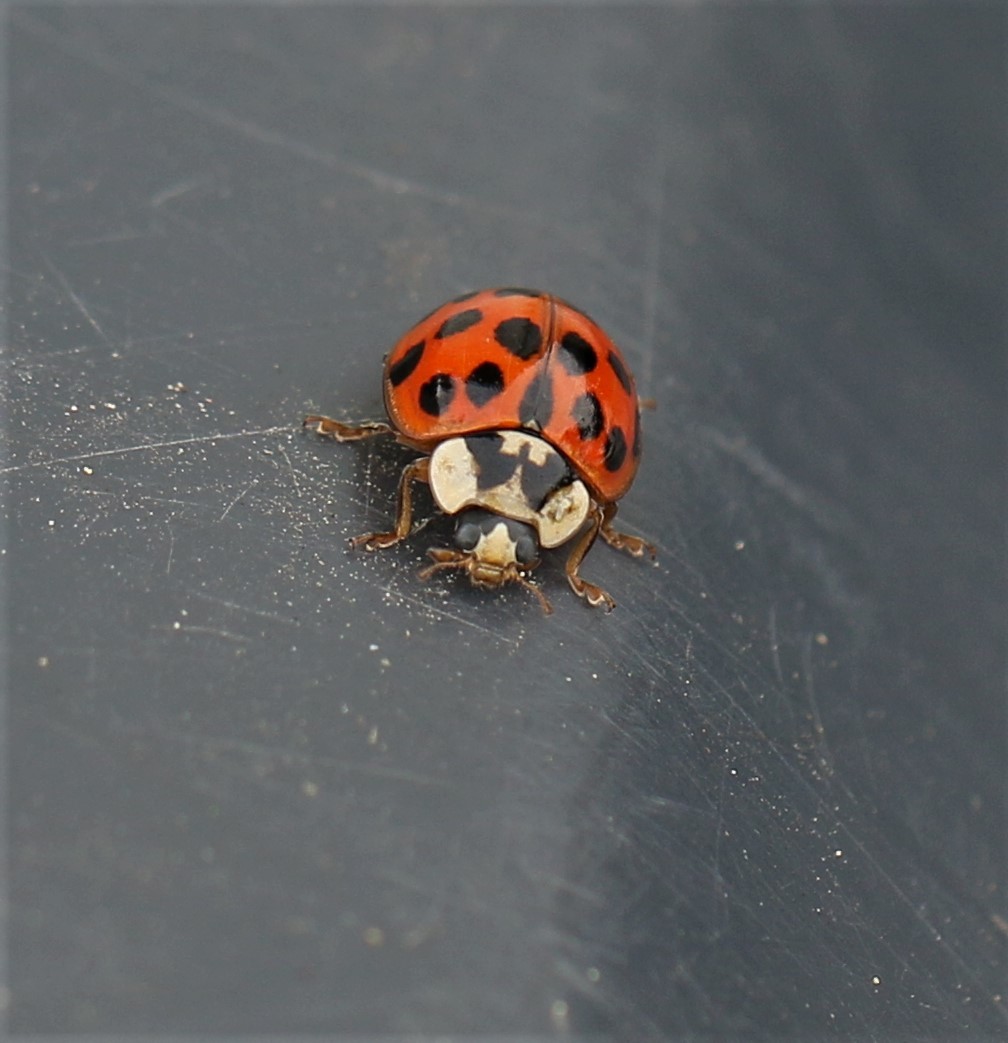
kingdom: Animalia
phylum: Arthropoda
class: Insecta
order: Coleoptera
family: Coccinellidae
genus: Harmonia
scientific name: Harmonia axyridis
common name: Harlequin ladybird
